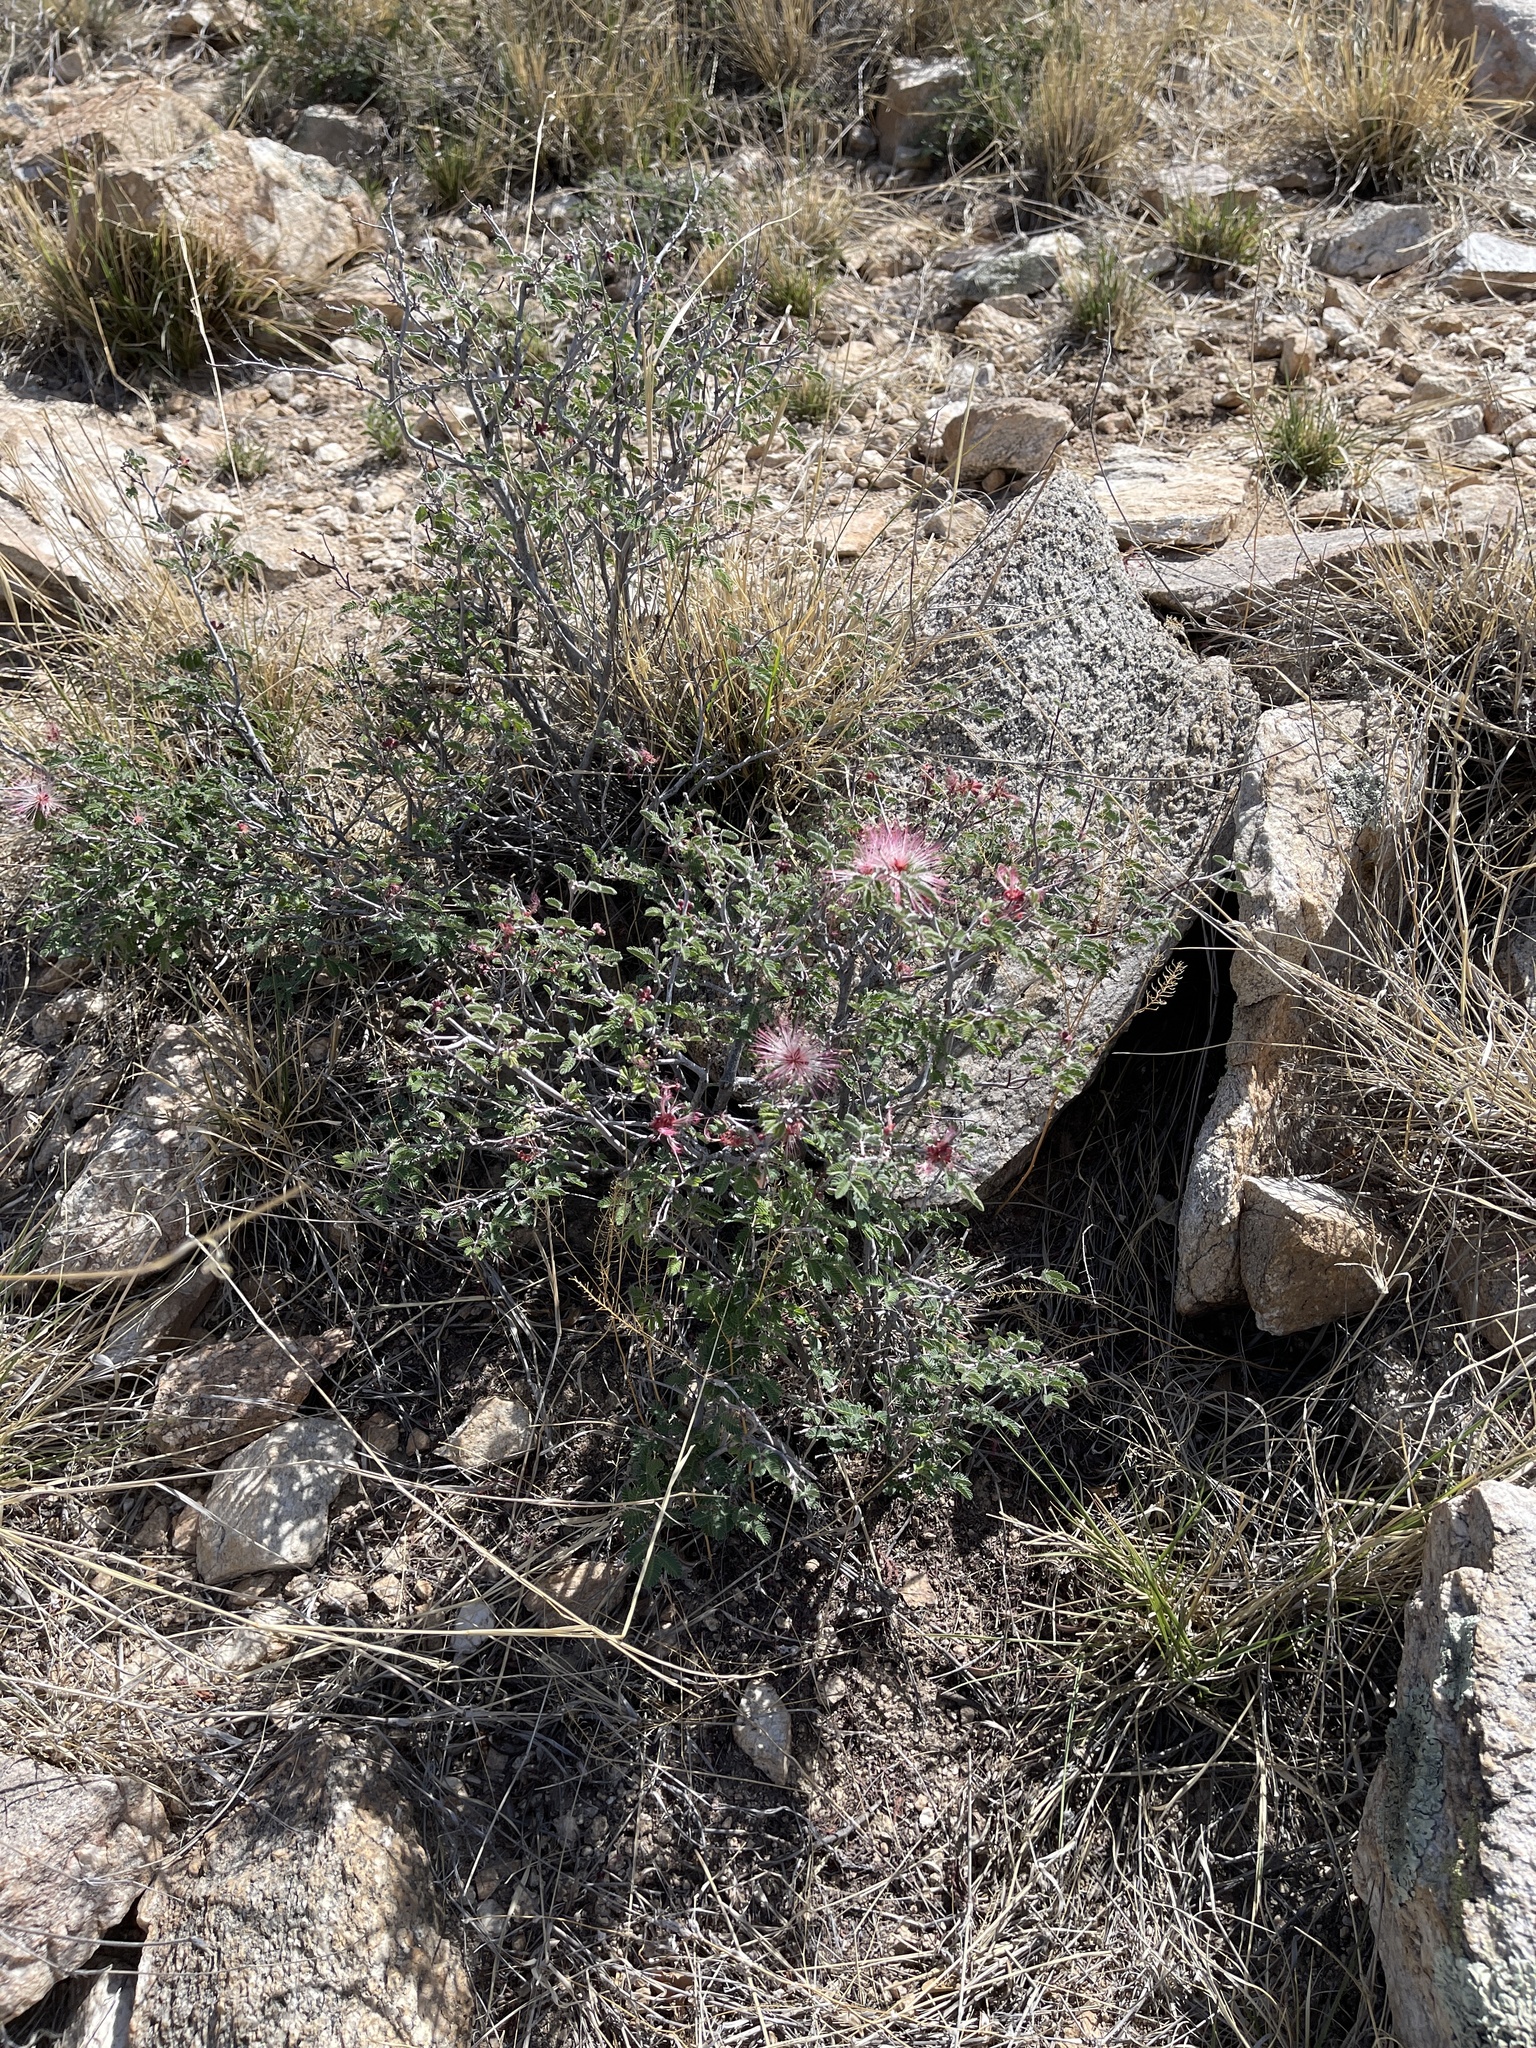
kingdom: Plantae
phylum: Tracheophyta
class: Magnoliopsida
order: Fabales
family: Fabaceae
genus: Calliandra
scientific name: Calliandra eriophylla
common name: Fairy-duster
